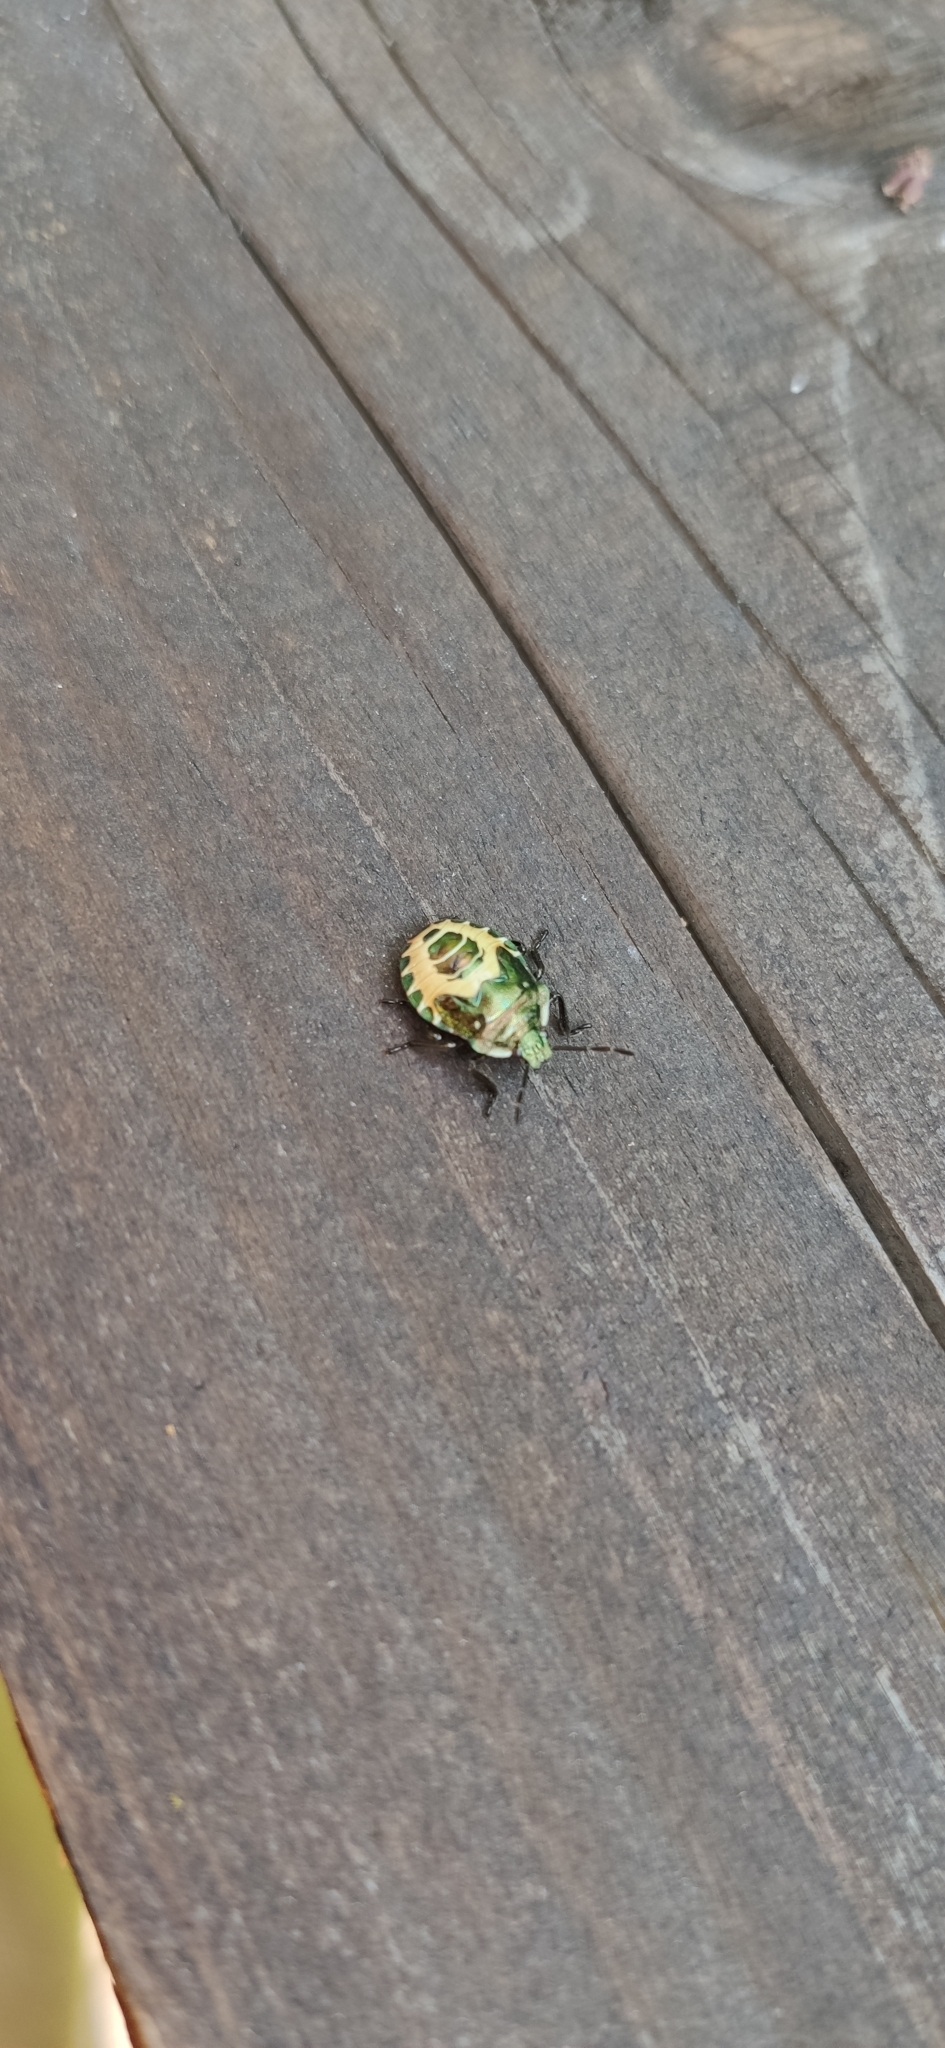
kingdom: Animalia
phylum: Arthropoda
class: Insecta
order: Hemiptera
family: Pentatomidae
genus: Troilus
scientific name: Troilus luridus
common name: Bronze shieldbug
